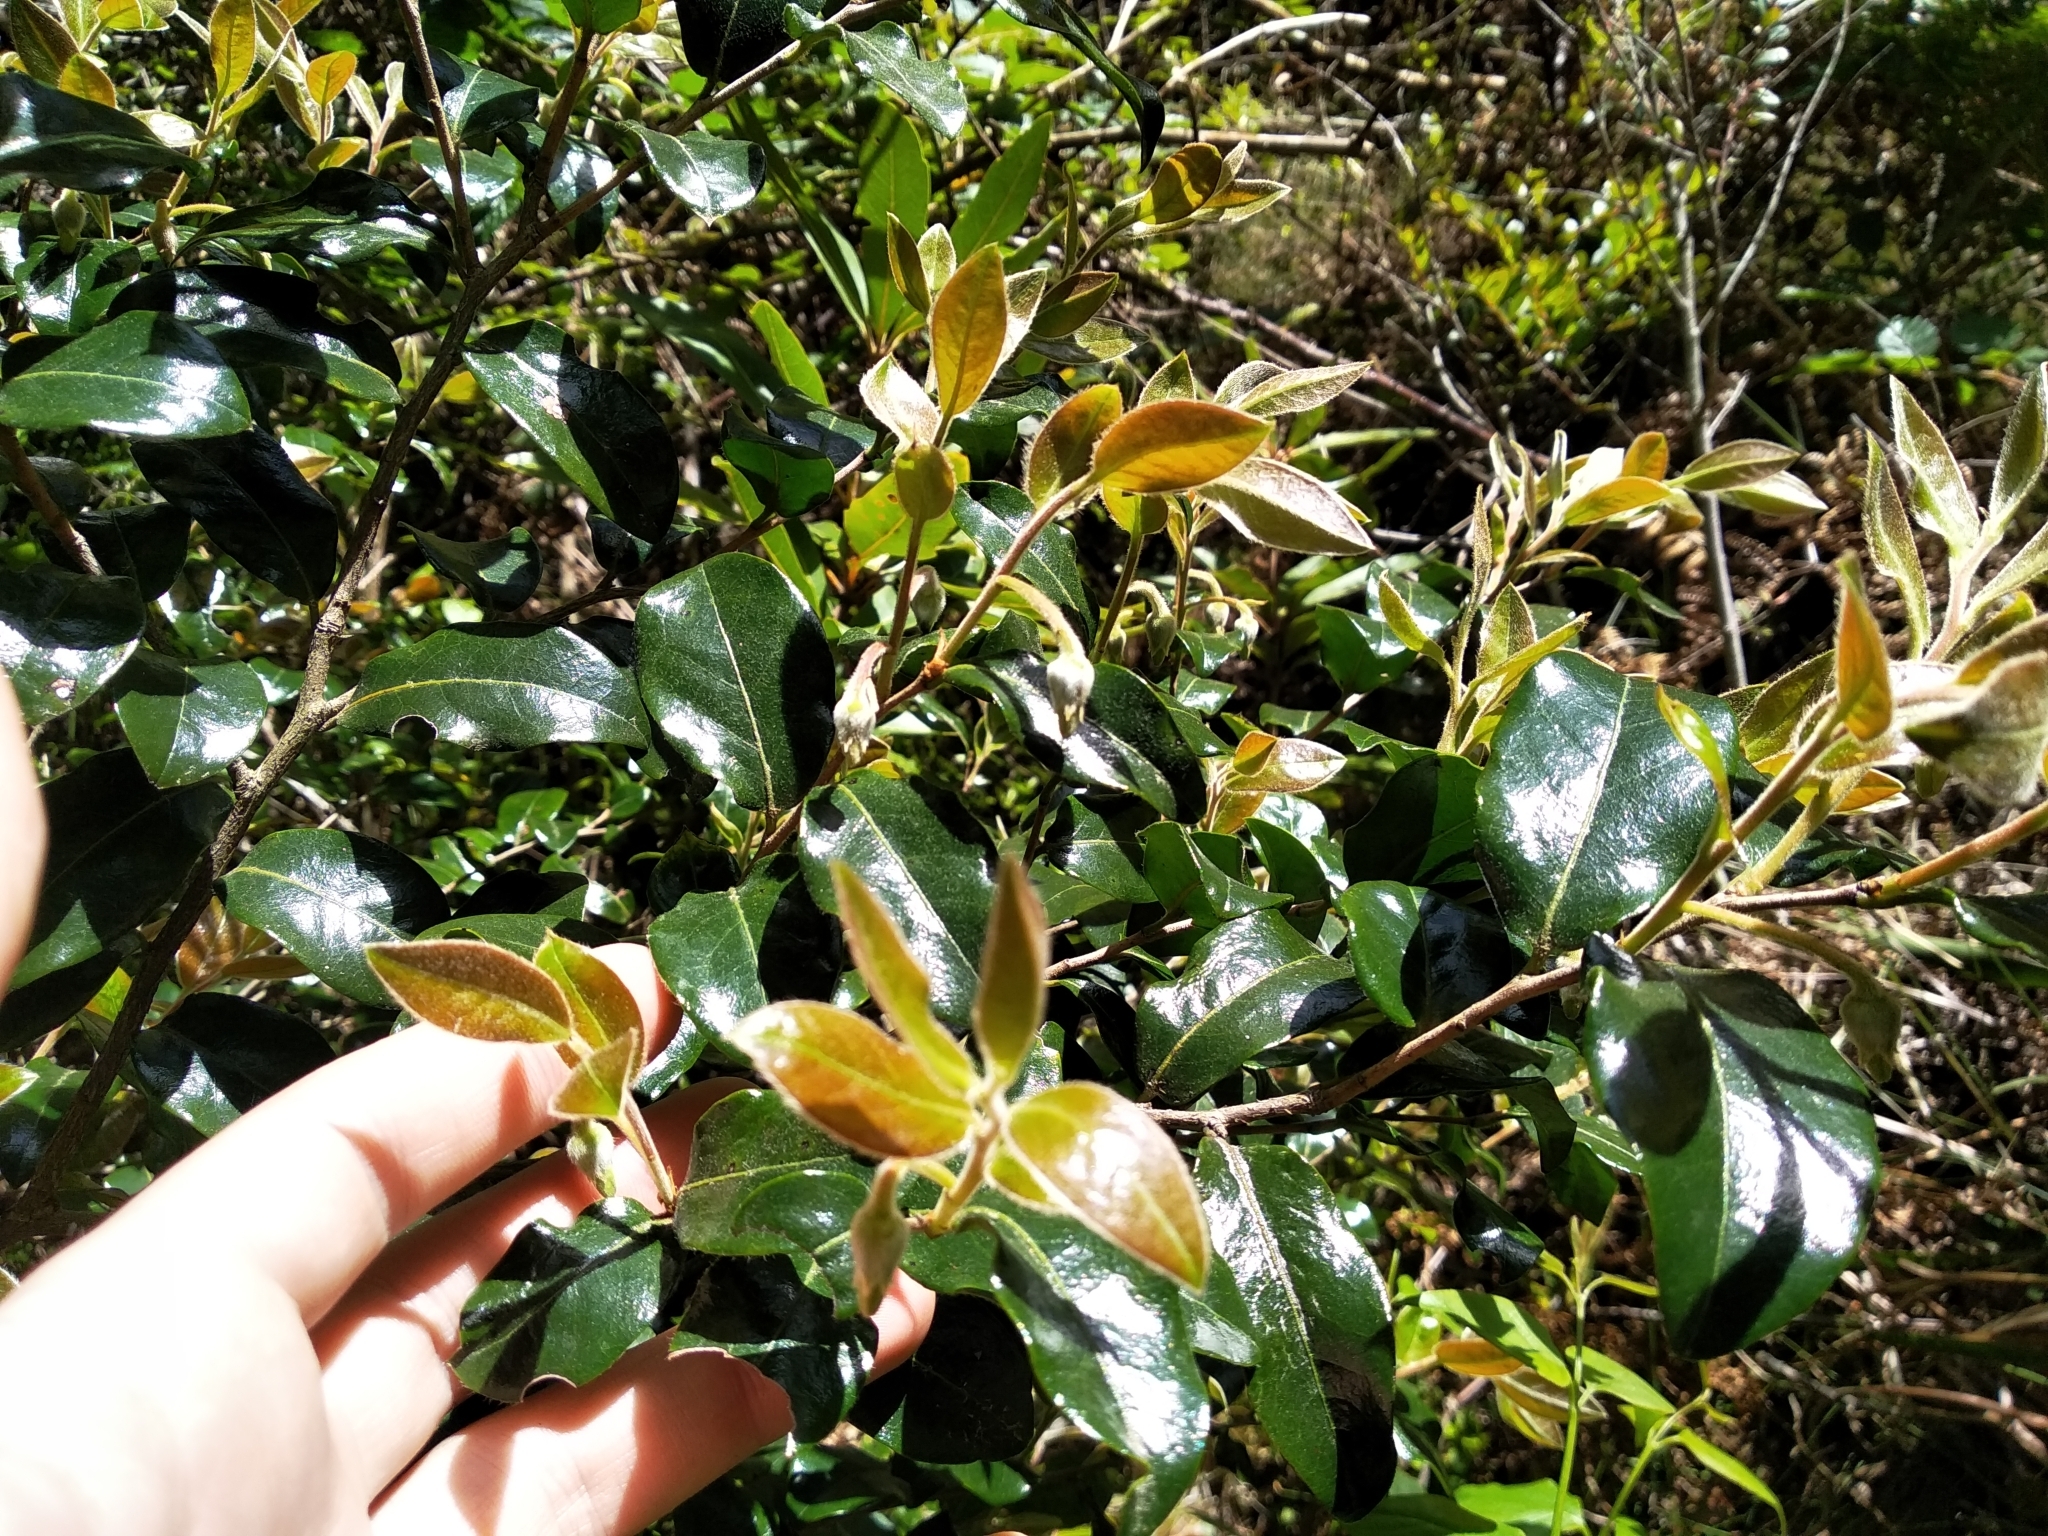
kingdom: Plantae
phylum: Tracheophyta
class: Magnoliopsida
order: Ericales
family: Ebenaceae
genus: Diospyros
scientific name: Diospyros whyteana
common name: Bladder-nut
